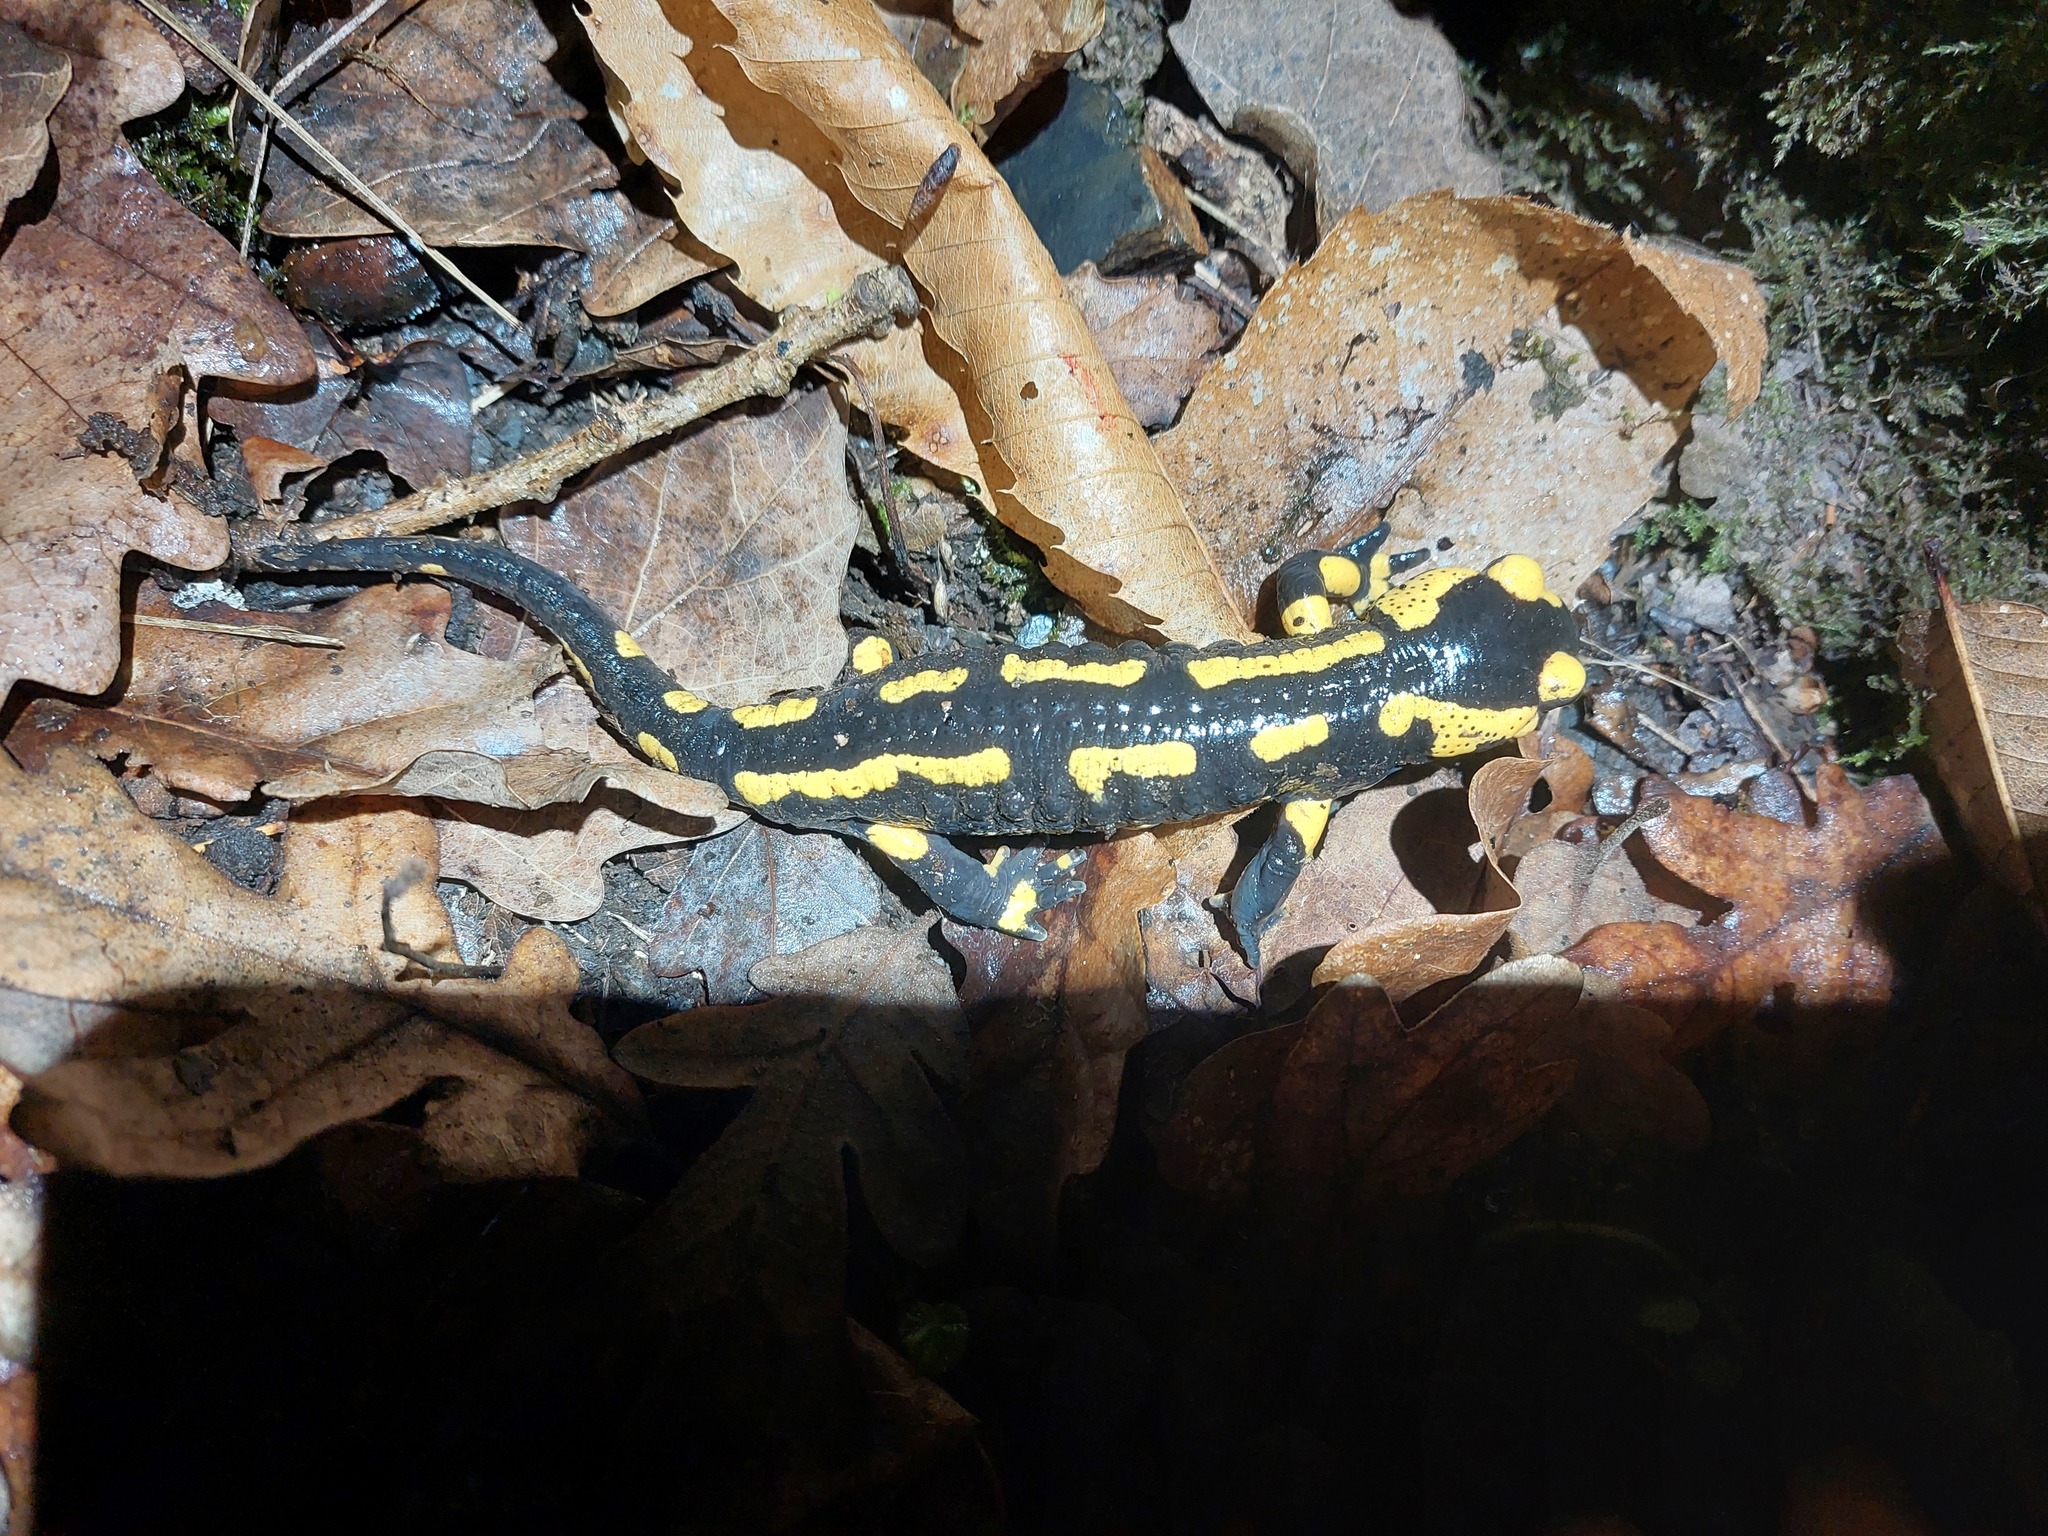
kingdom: Animalia
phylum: Chordata
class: Amphibia
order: Caudata
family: Salamandridae
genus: Salamandra
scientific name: Salamandra salamandra
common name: Fire salamander
